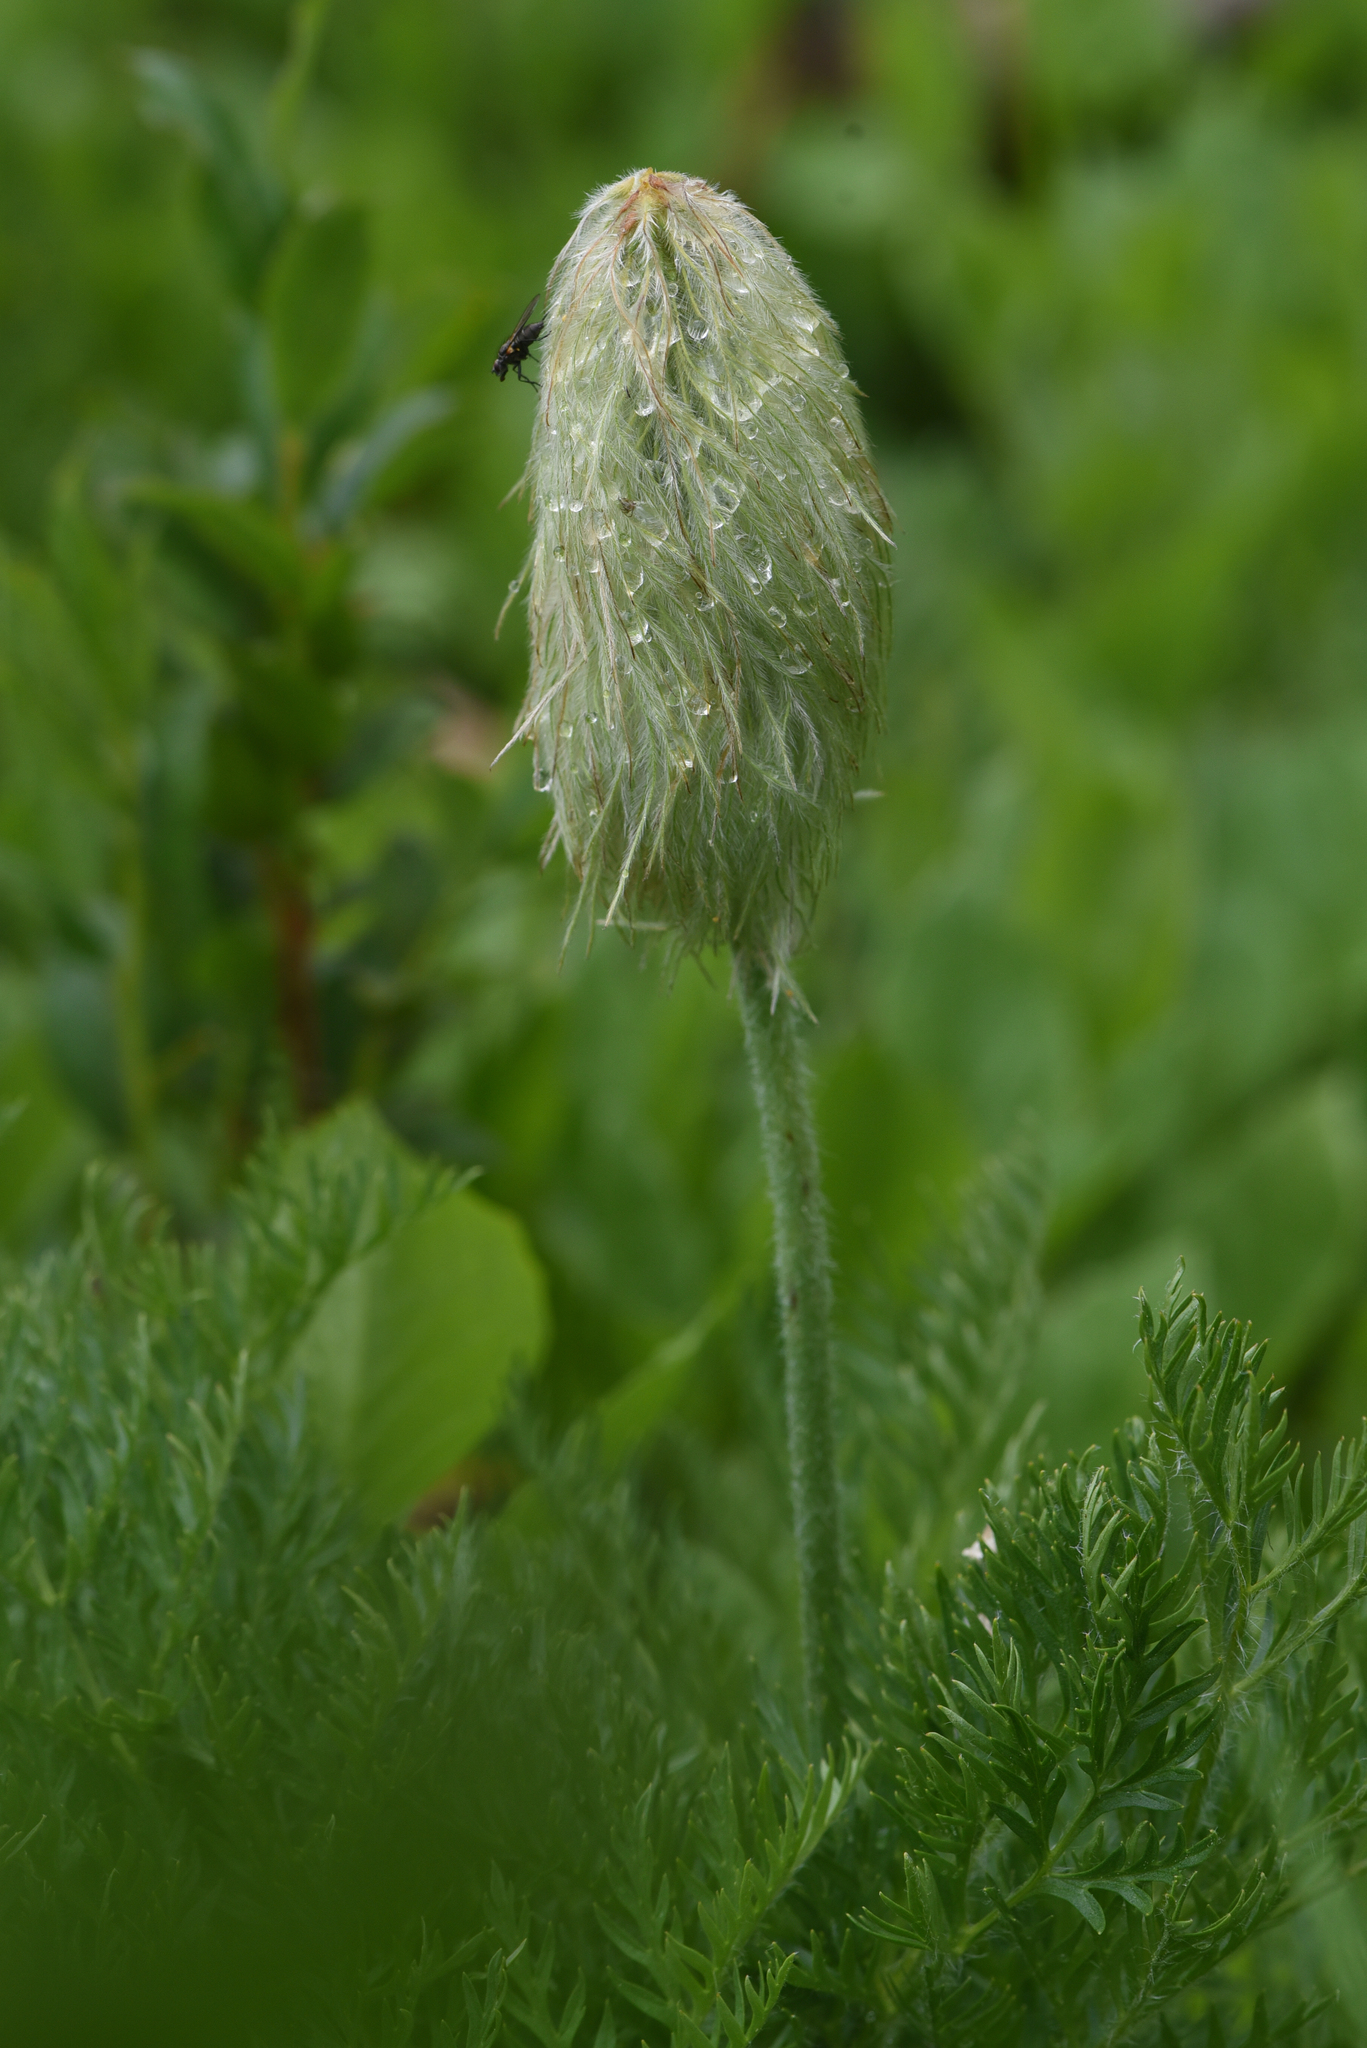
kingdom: Plantae
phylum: Tracheophyta
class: Magnoliopsida
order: Ranunculales
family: Ranunculaceae
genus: Pulsatilla
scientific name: Pulsatilla occidentalis
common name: Mountain pasqueflower
